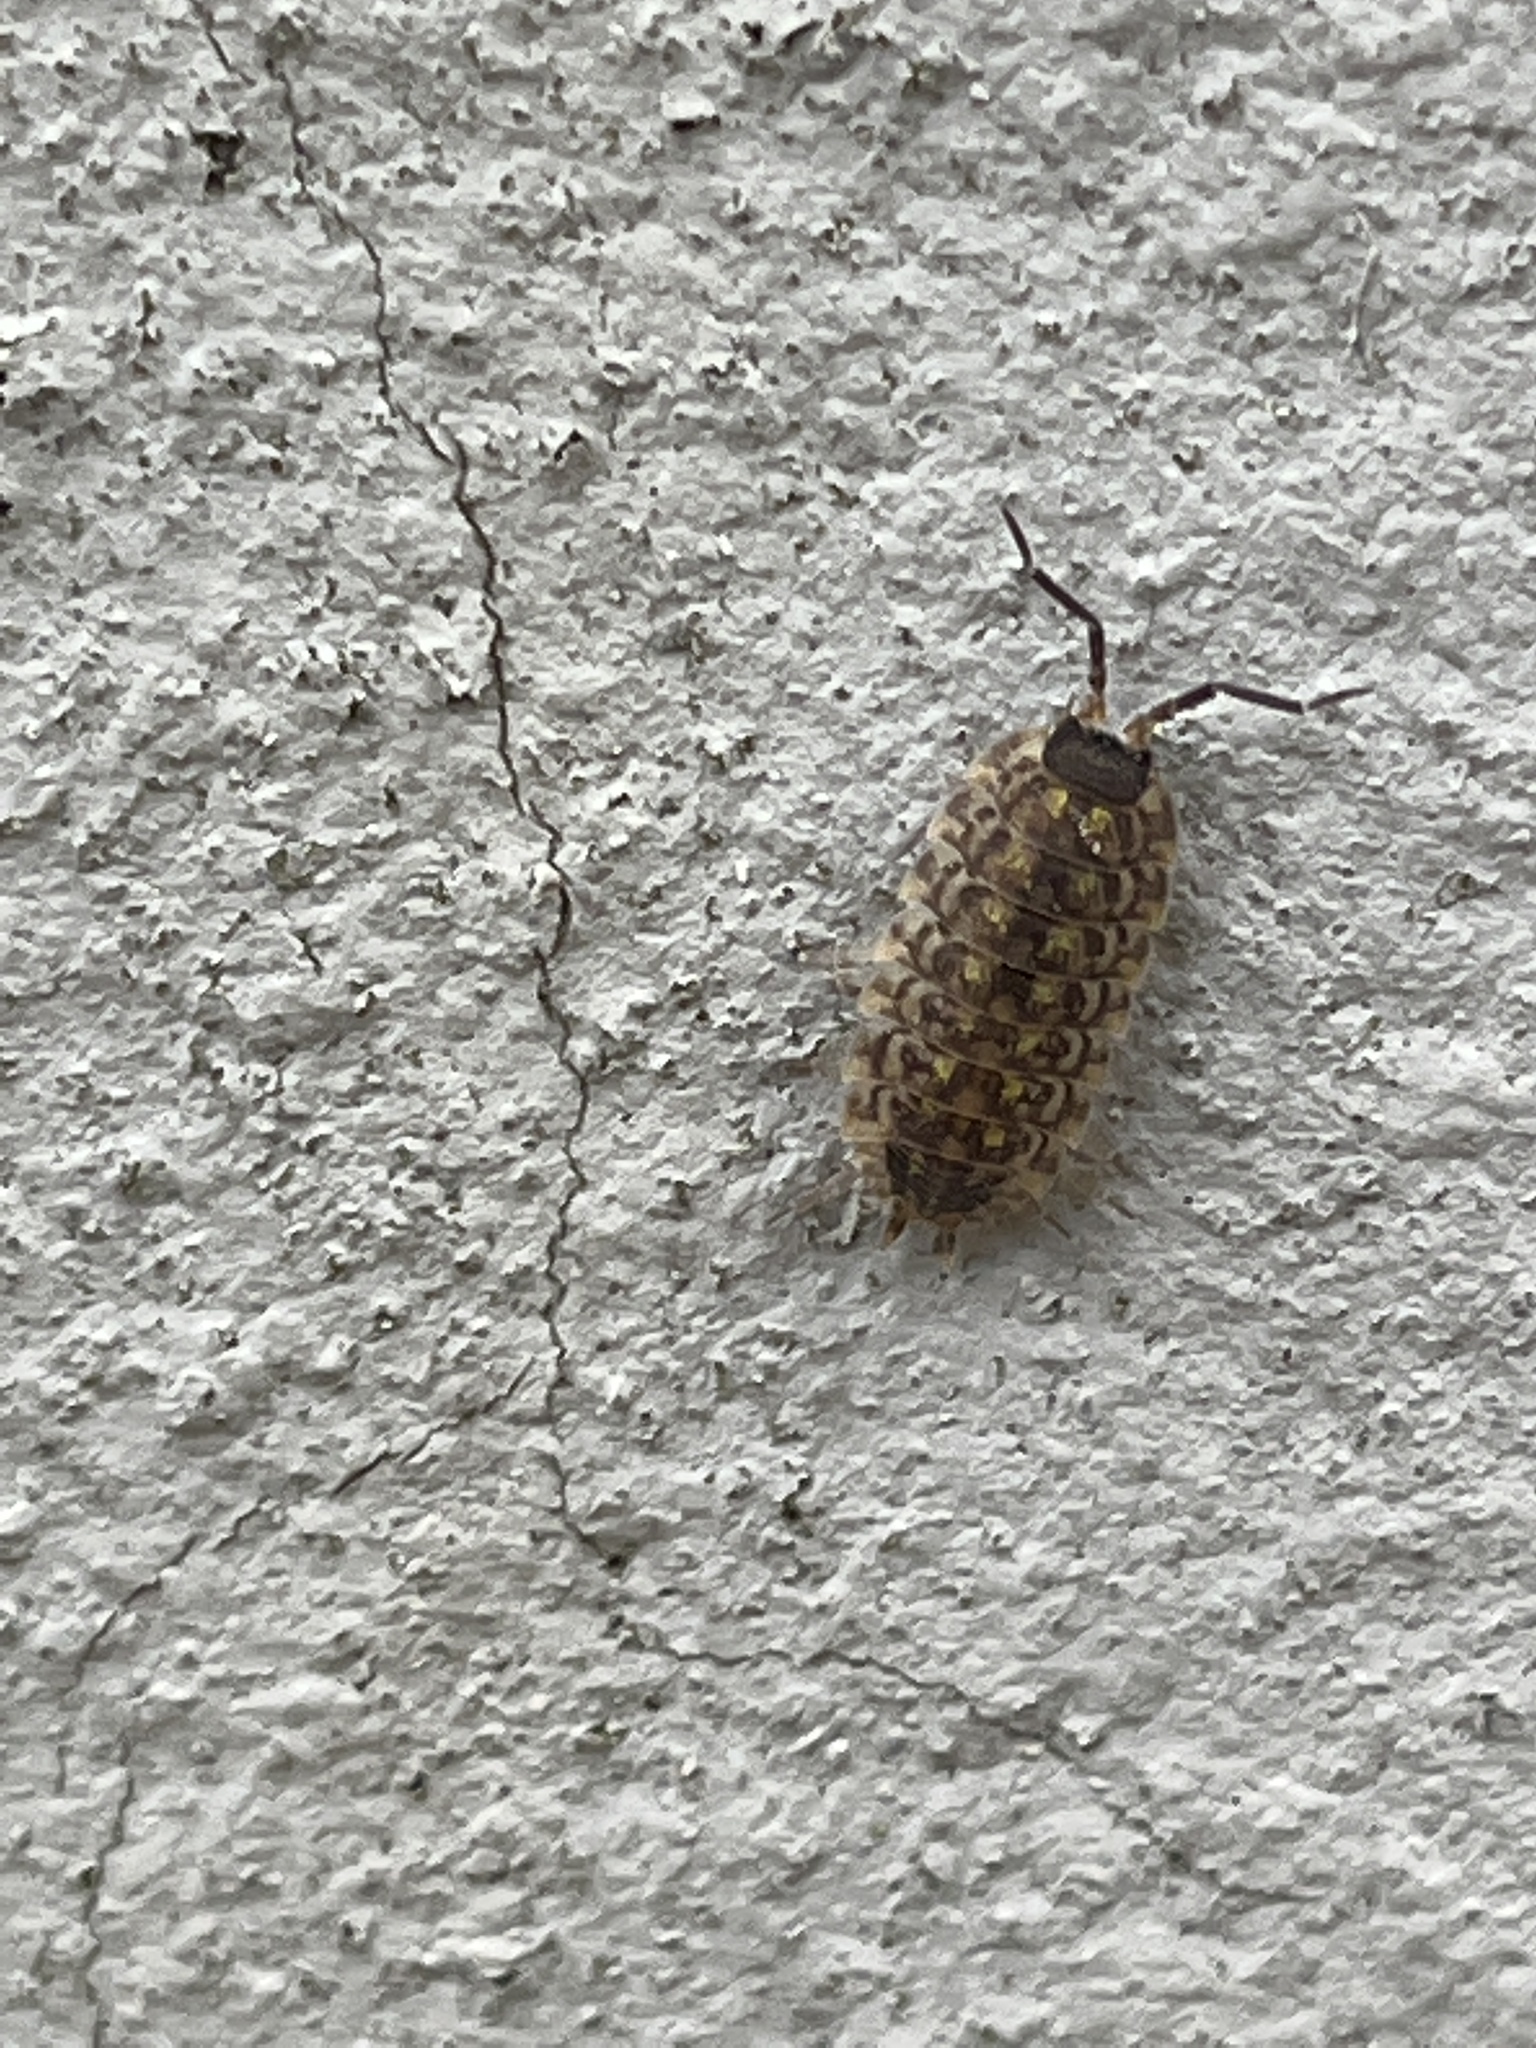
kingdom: Animalia
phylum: Arthropoda
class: Malacostraca
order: Isopoda
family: Porcellionidae
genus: Porcellio
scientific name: Porcellio spinicornis
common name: Painted woodlouse
